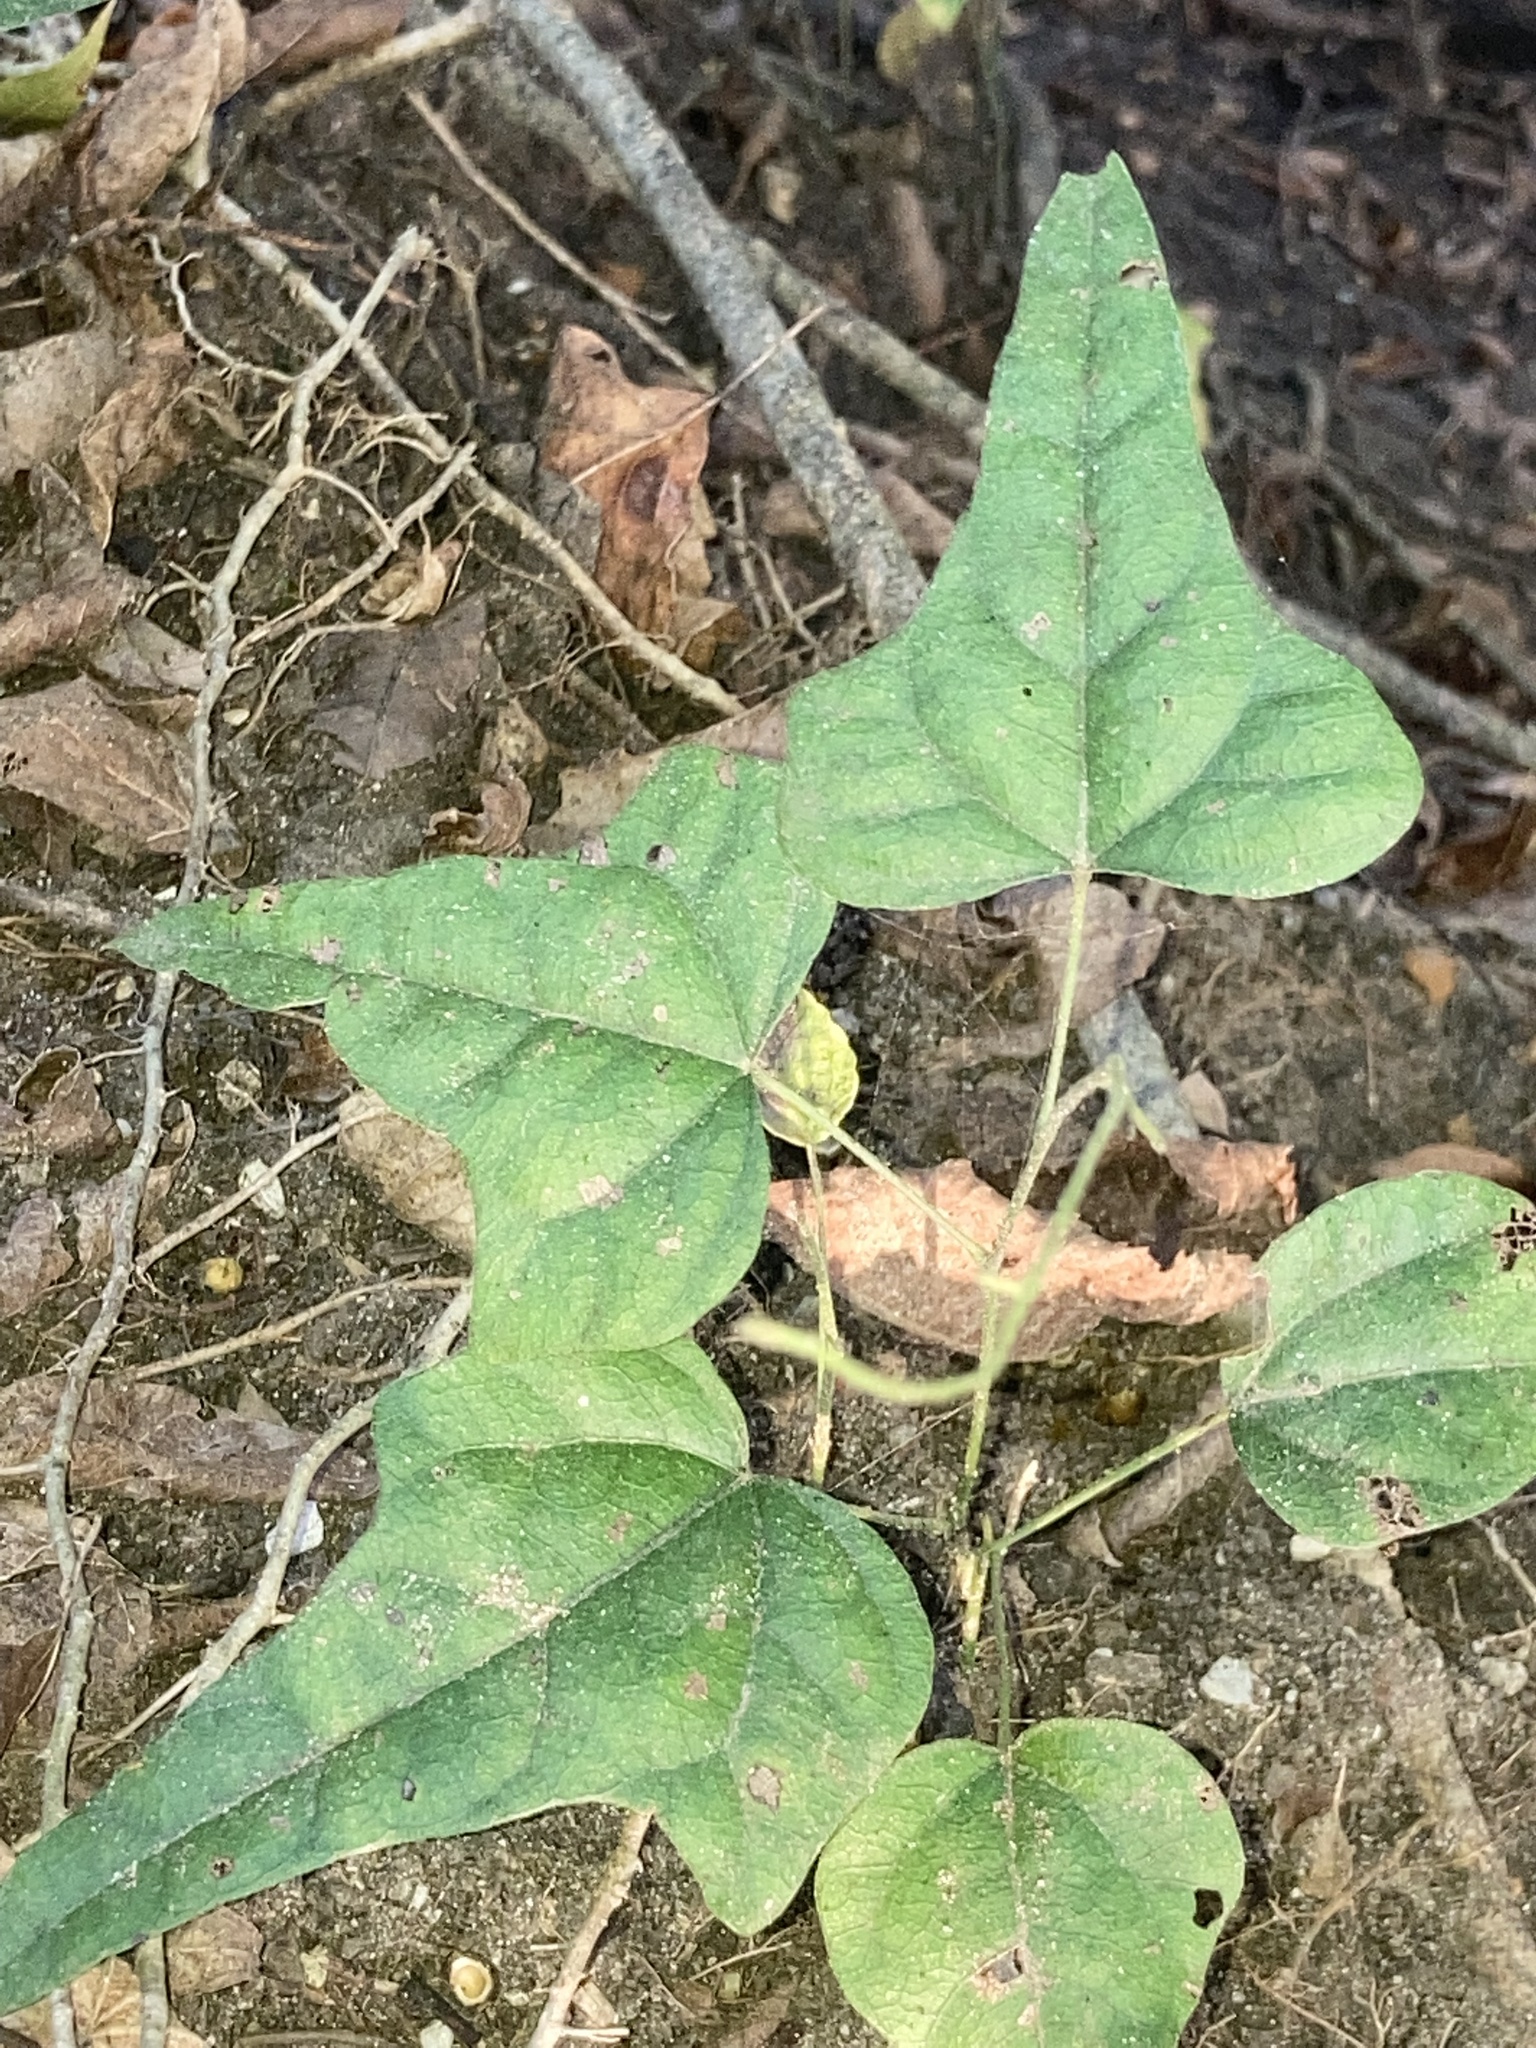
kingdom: Plantae
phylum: Tracheophyta
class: Magnoliopsida
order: Ranunculales
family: Menispermaceae
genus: Cocculus
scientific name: Cocculus carolinus
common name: Carolina moonseed
